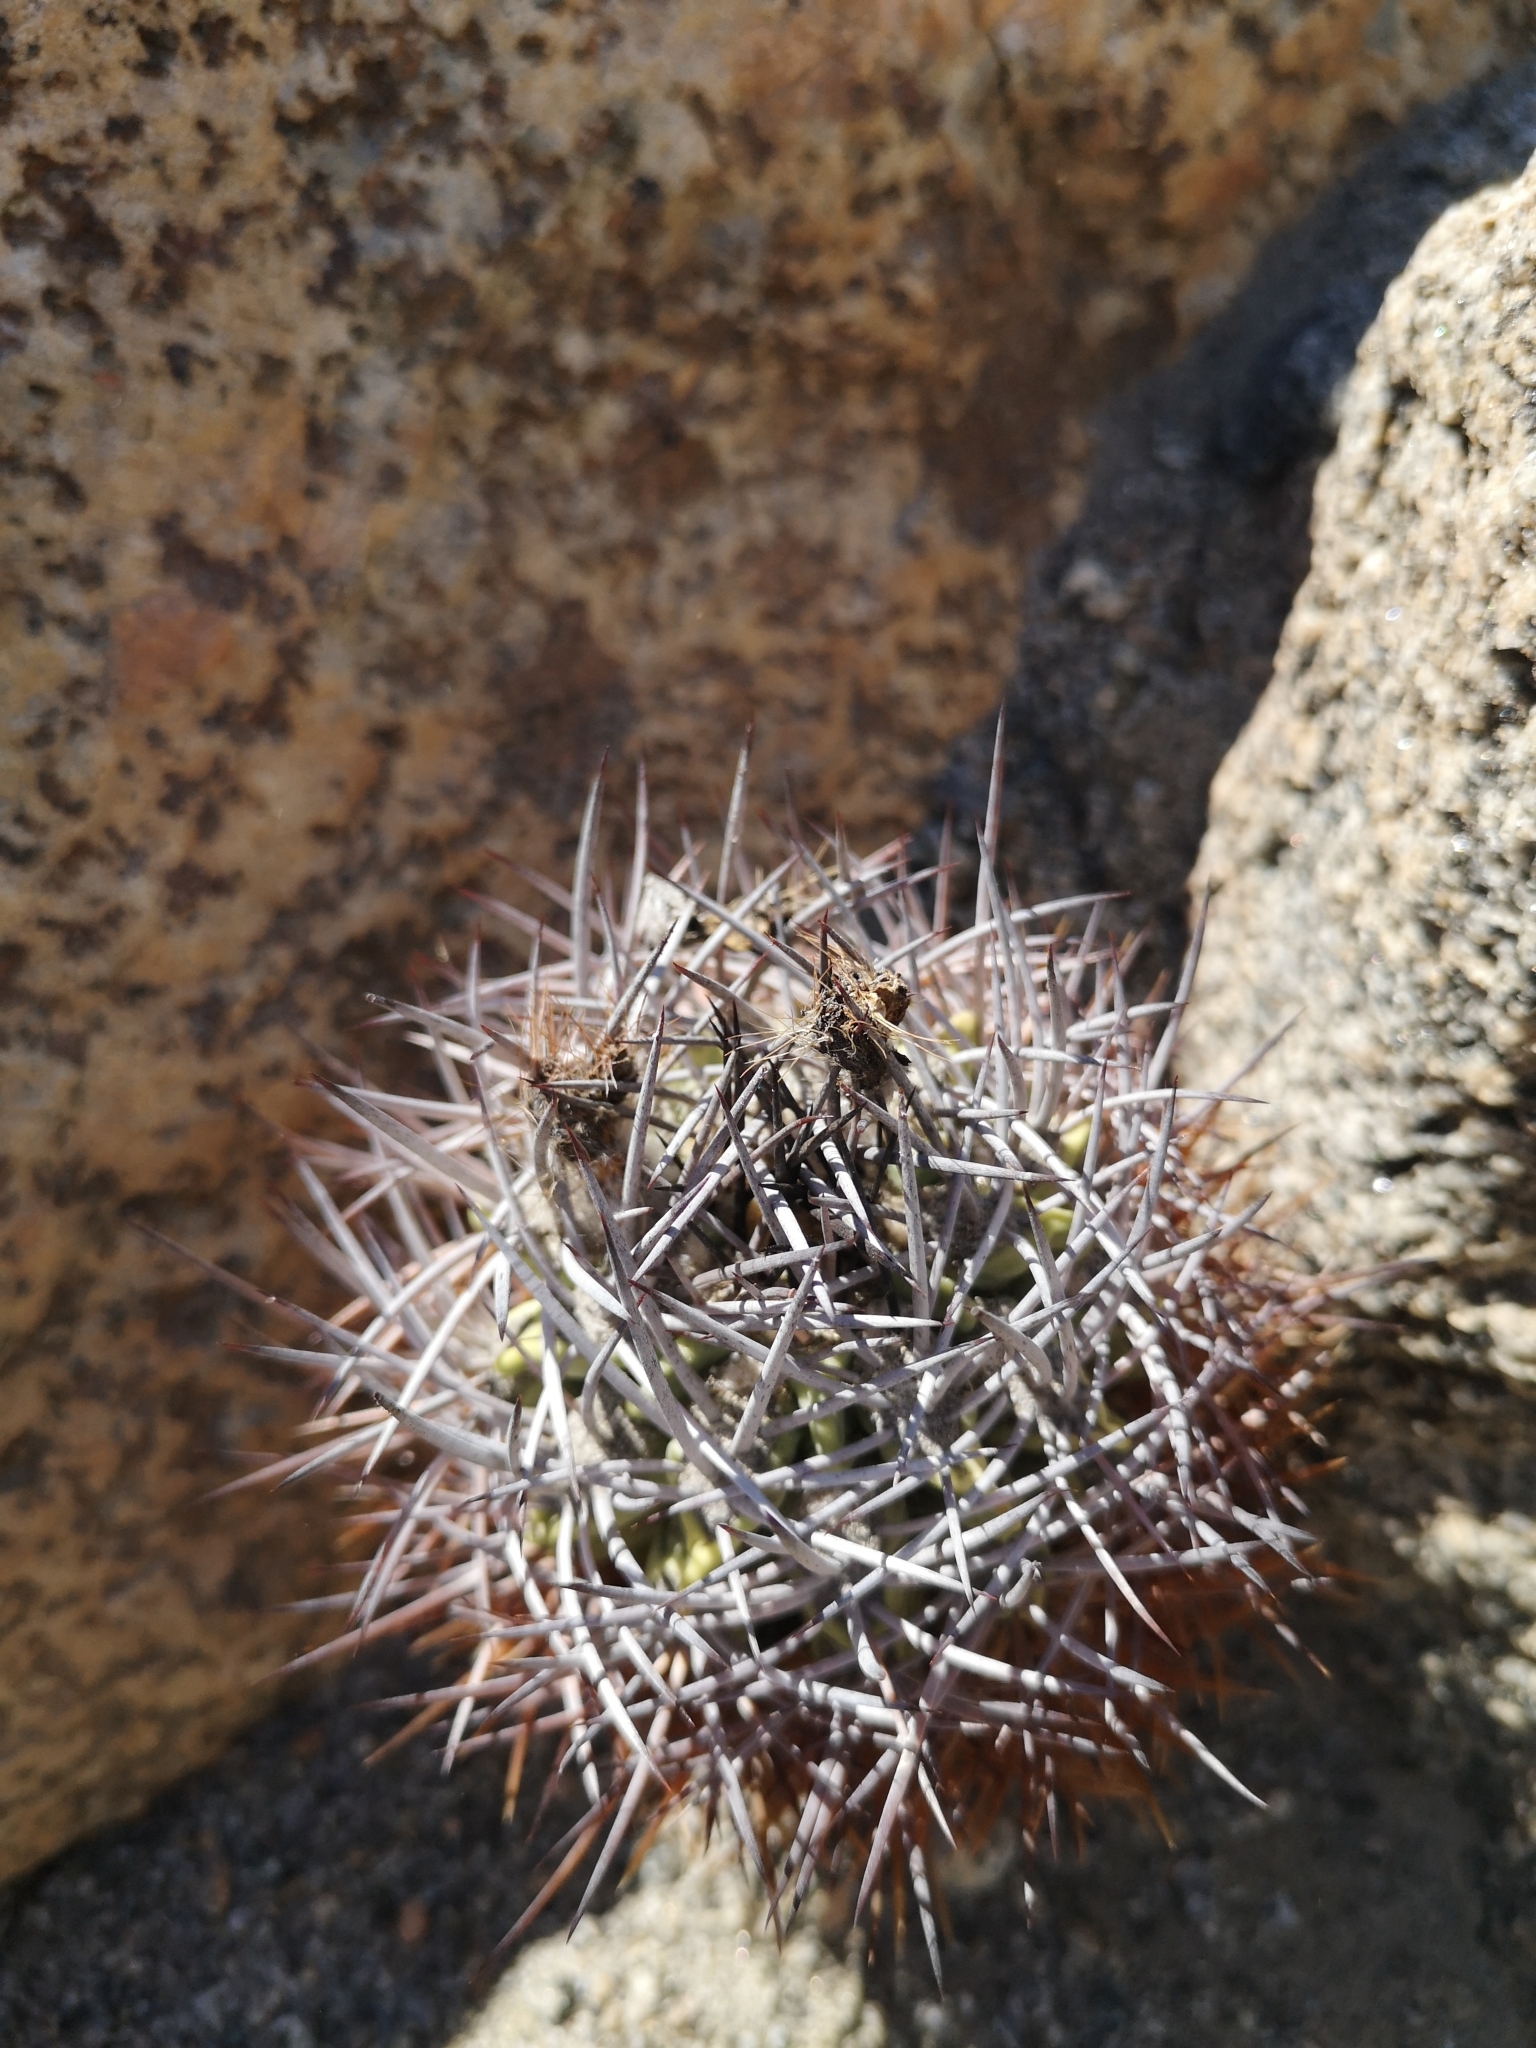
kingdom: Plantae
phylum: Tracheophyta
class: Magnoliopsida
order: Caryophyllales
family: Cactaceae
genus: Eriosyce
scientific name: Eriosyce paucicostata
